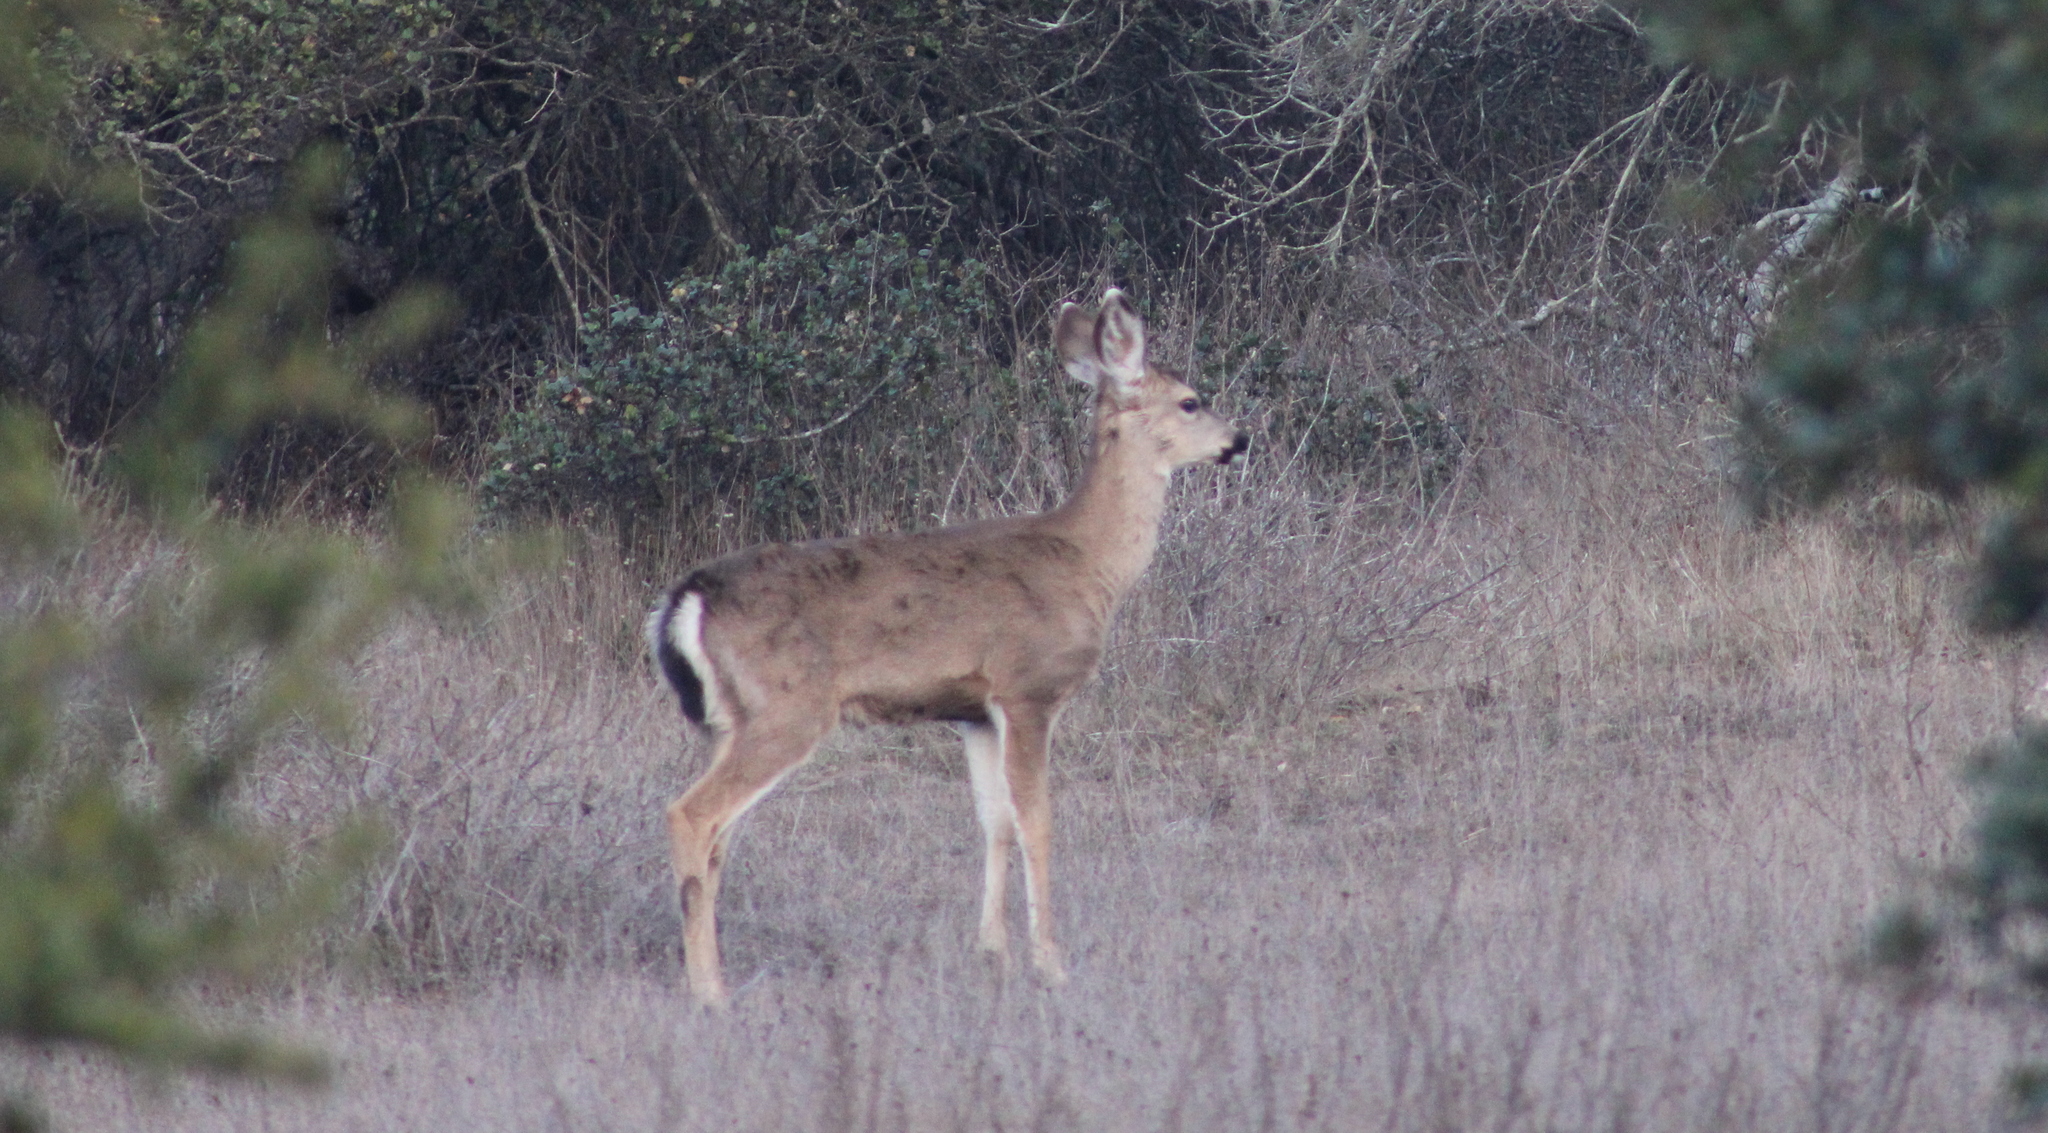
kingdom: Animalia
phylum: Chordata
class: Mammalia
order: Artiodactyla
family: Cervidae
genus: Odocoileus
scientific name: Odocoileus hemionus
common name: Mule deer
